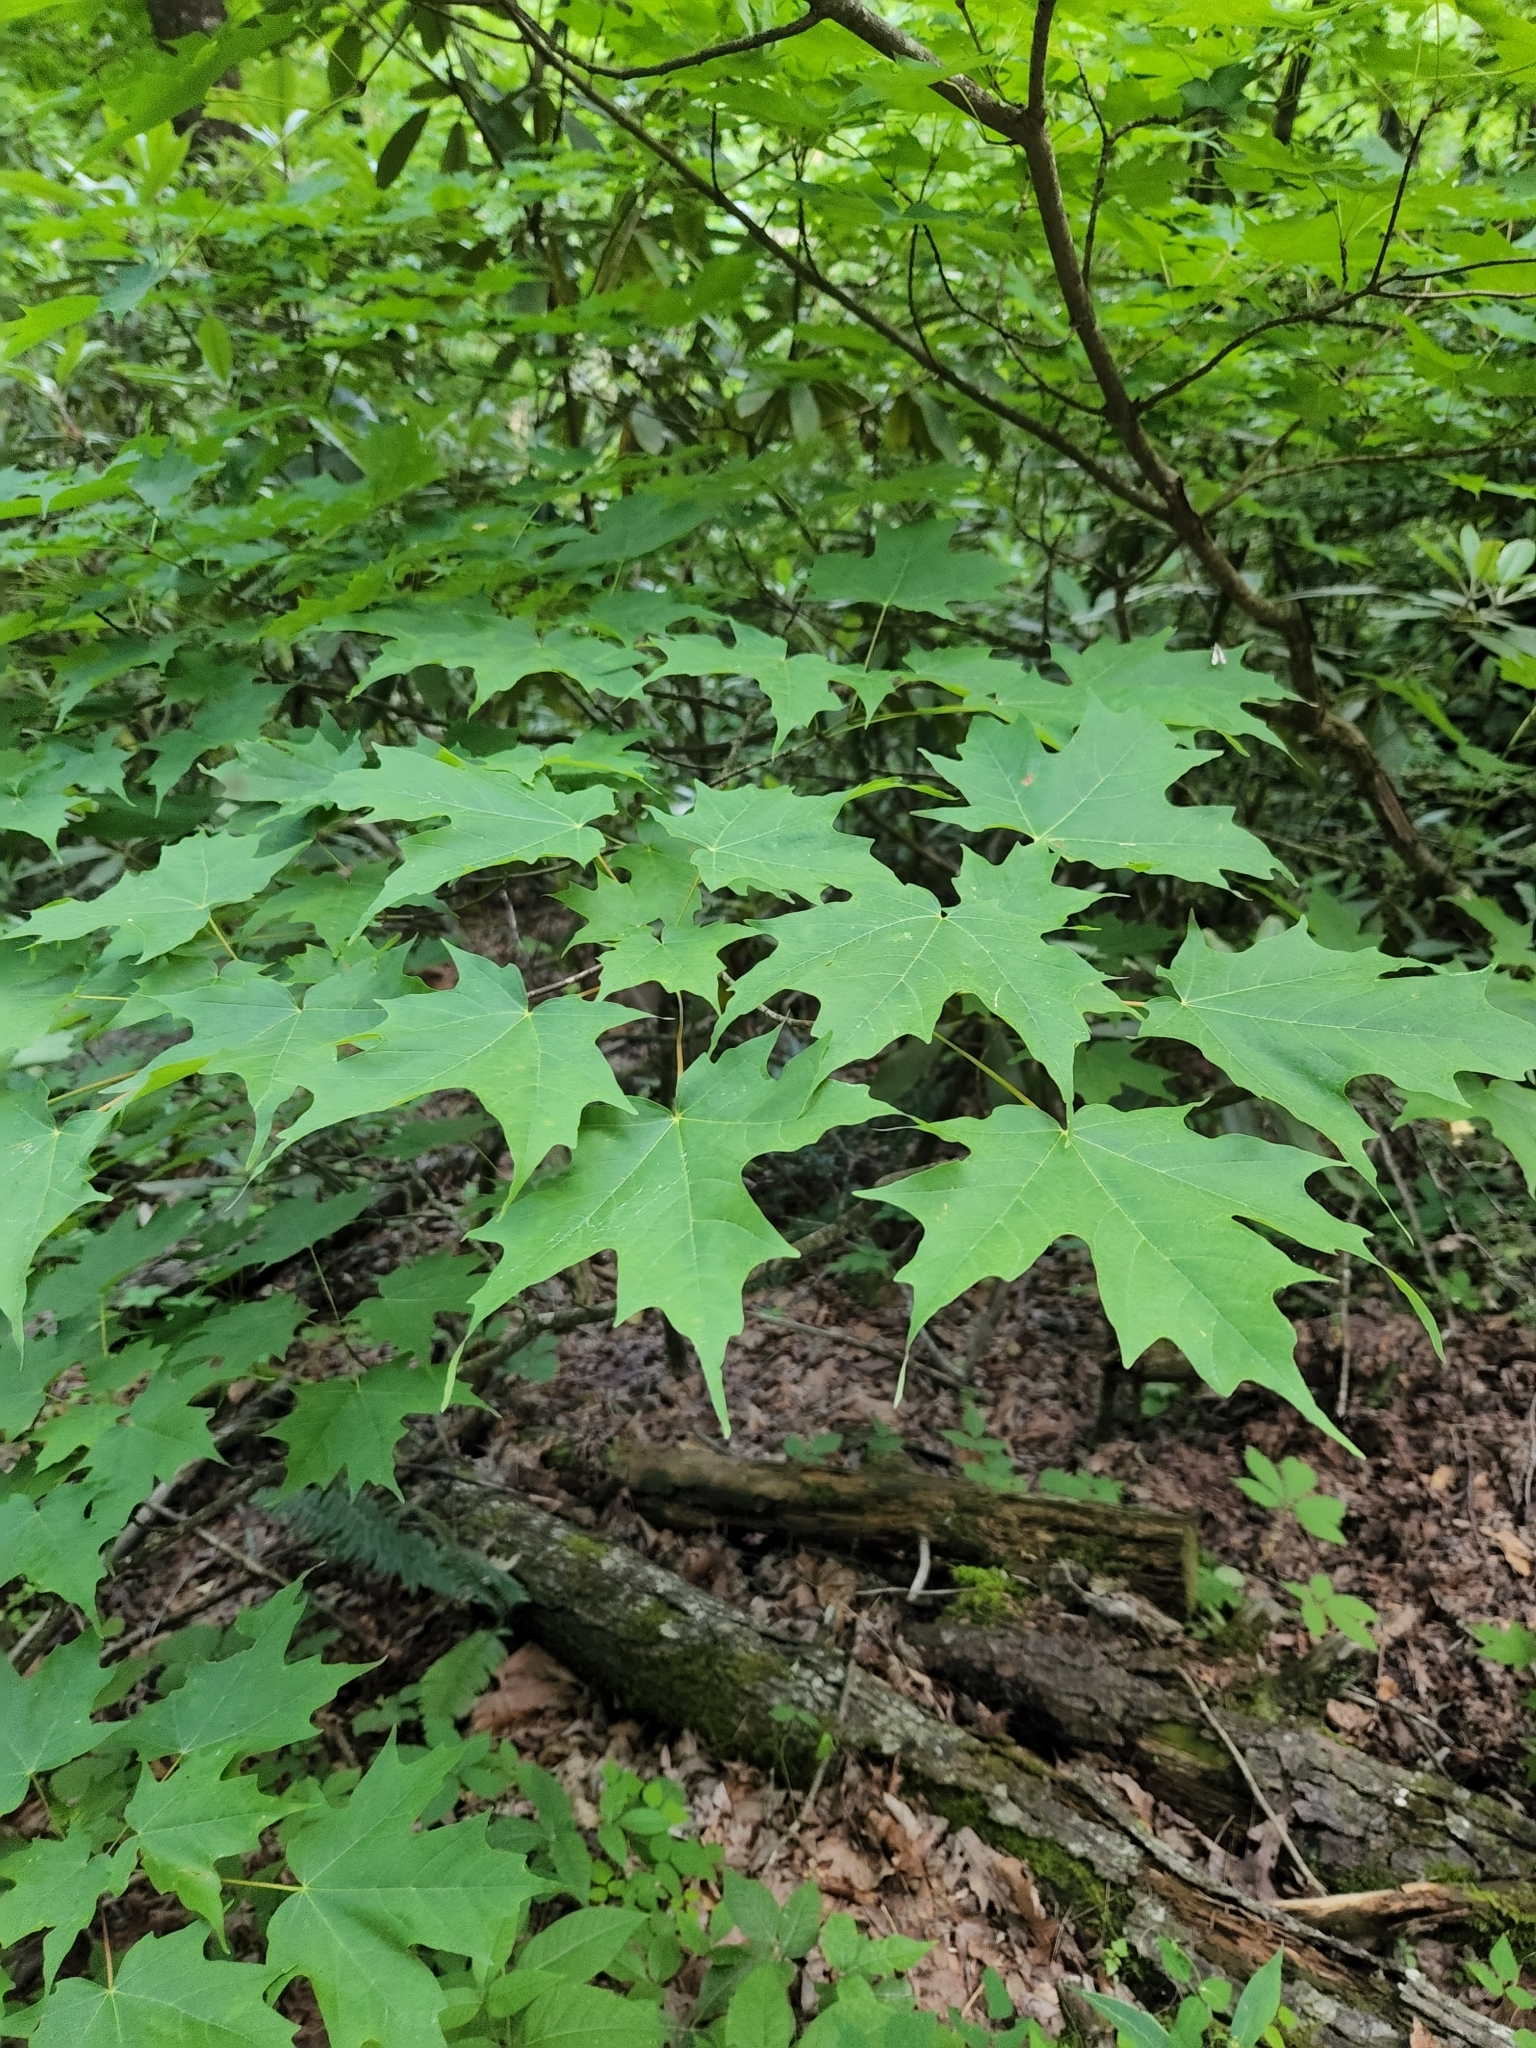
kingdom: Plantae
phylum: Tracheophyta
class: Magnoliopsida
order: Sapindales
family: Sapindaceae
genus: Acer
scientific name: Acer saccharum
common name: Sugar maple
